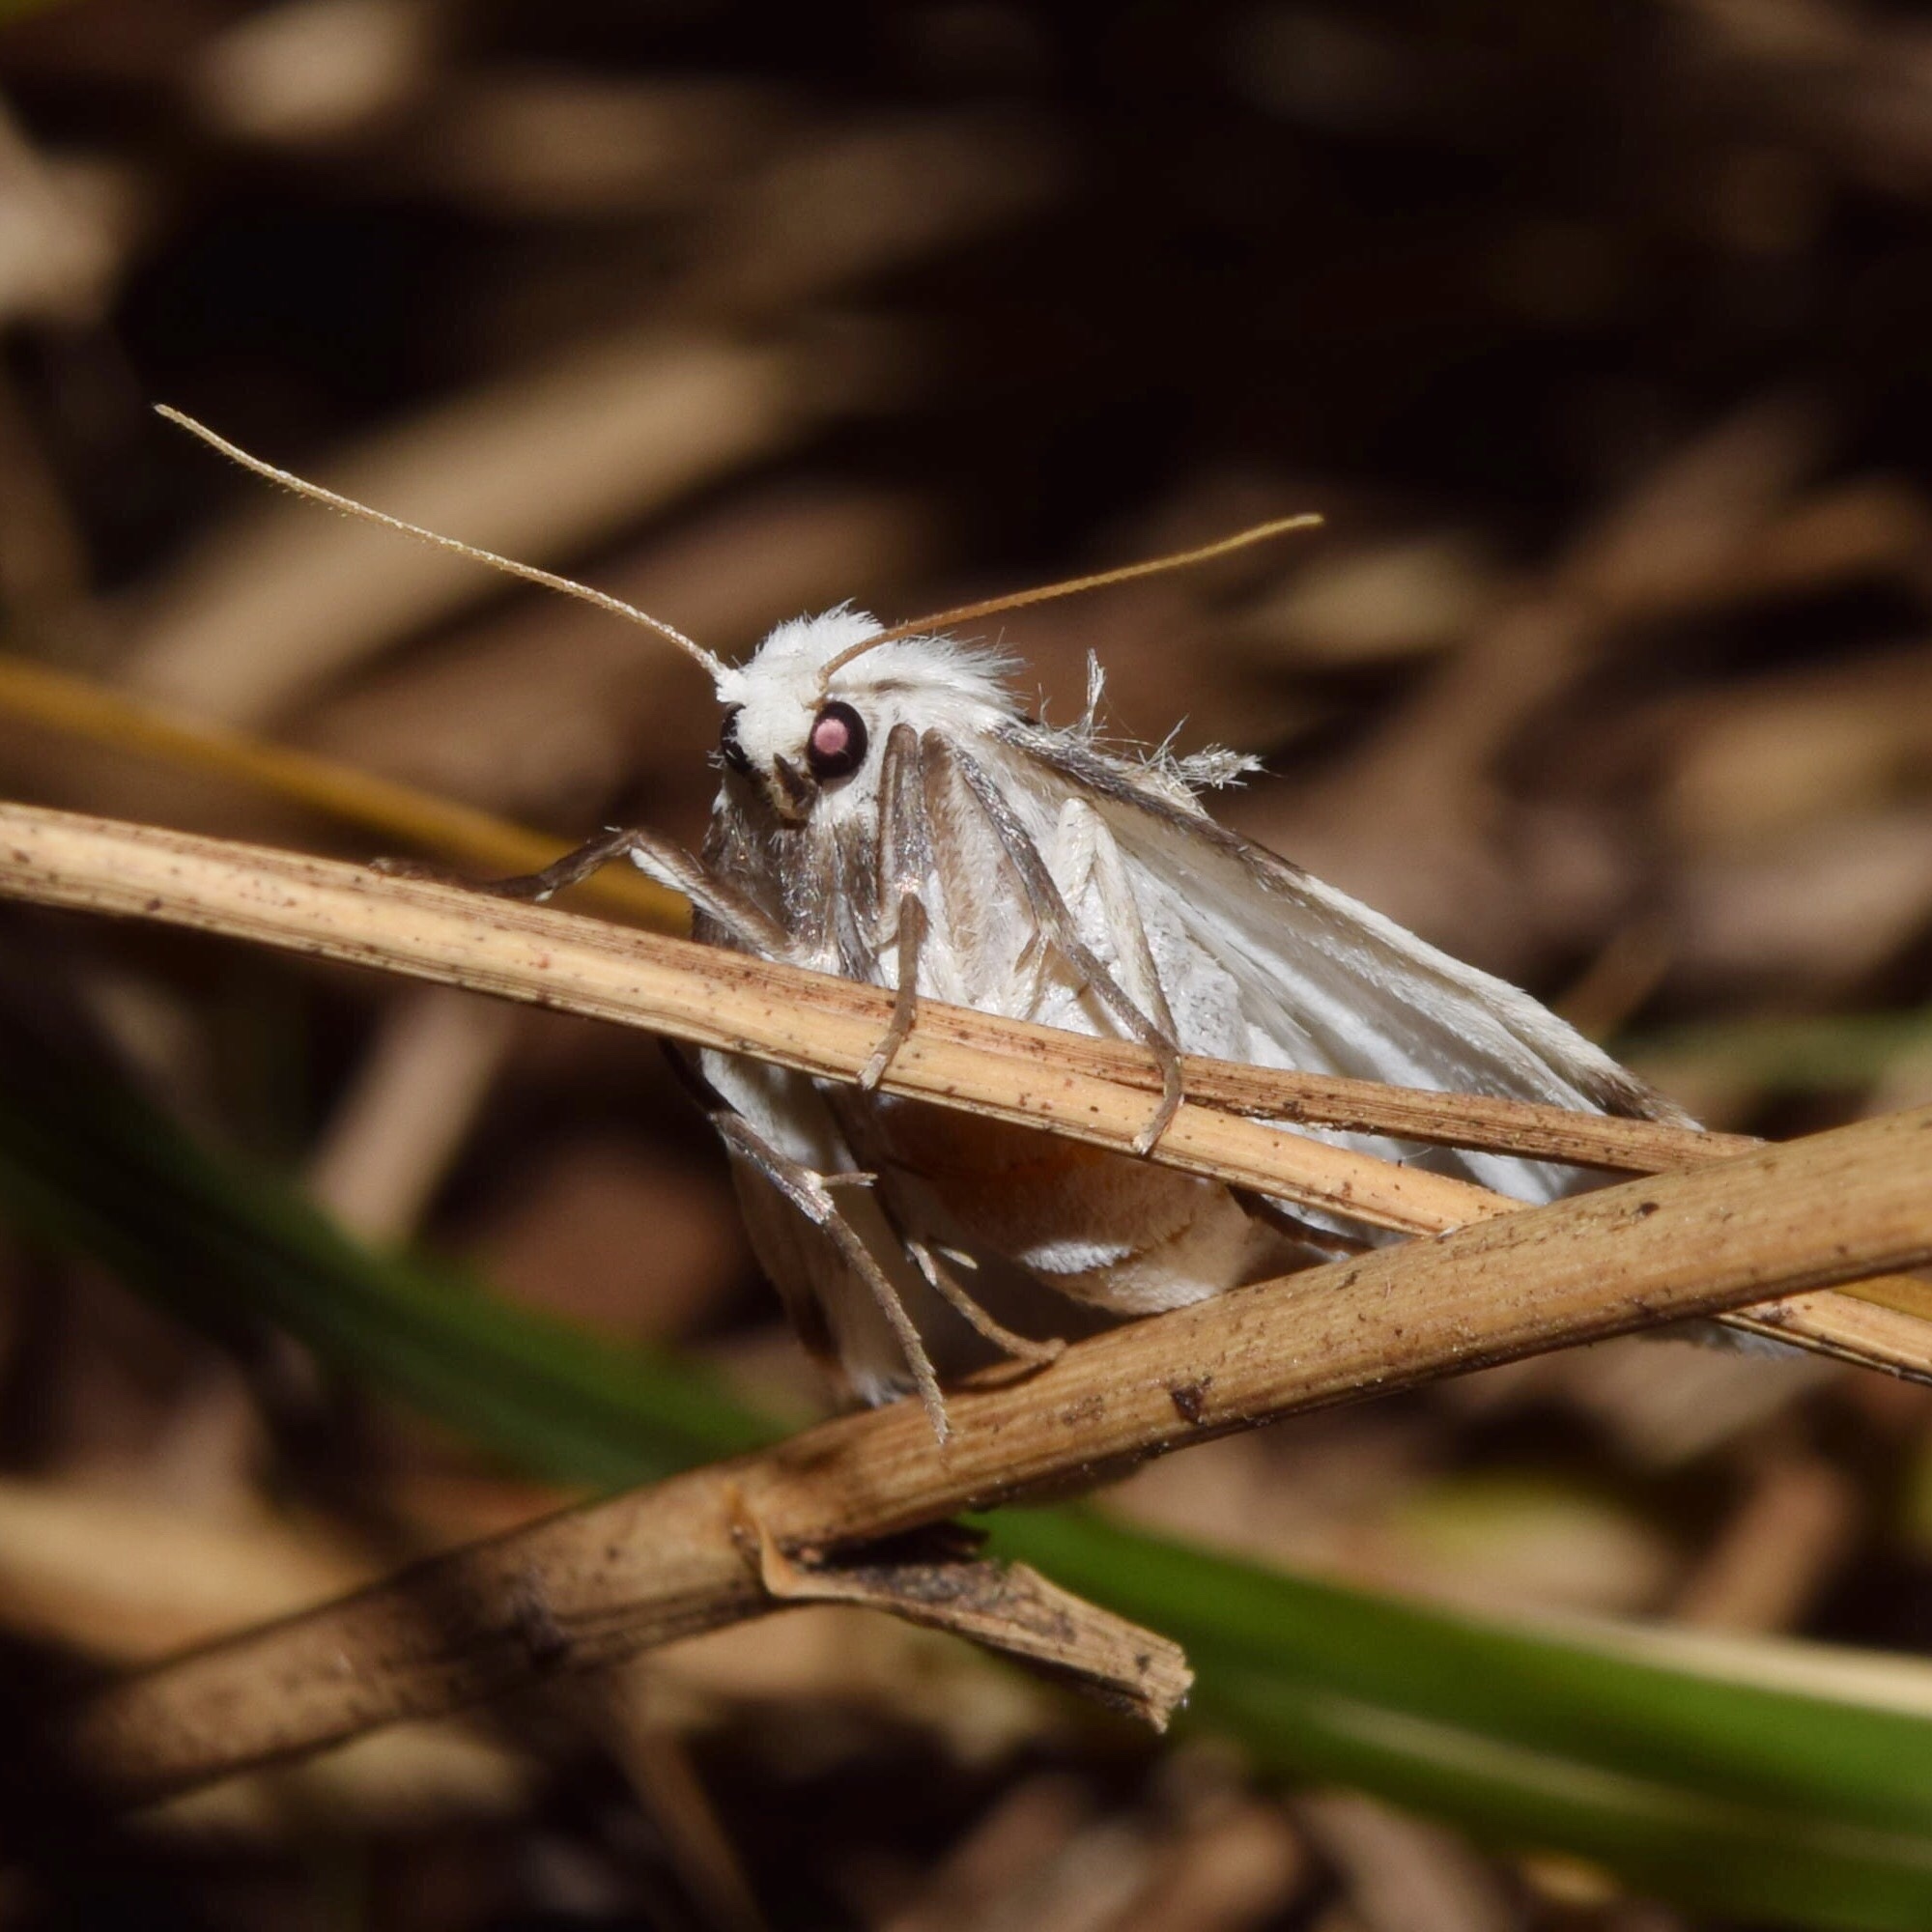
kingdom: Animalia
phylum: Arthropoda
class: Insecta
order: Lepidoptera
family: Erebidae
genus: Cyana
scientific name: Cyana marshalli
